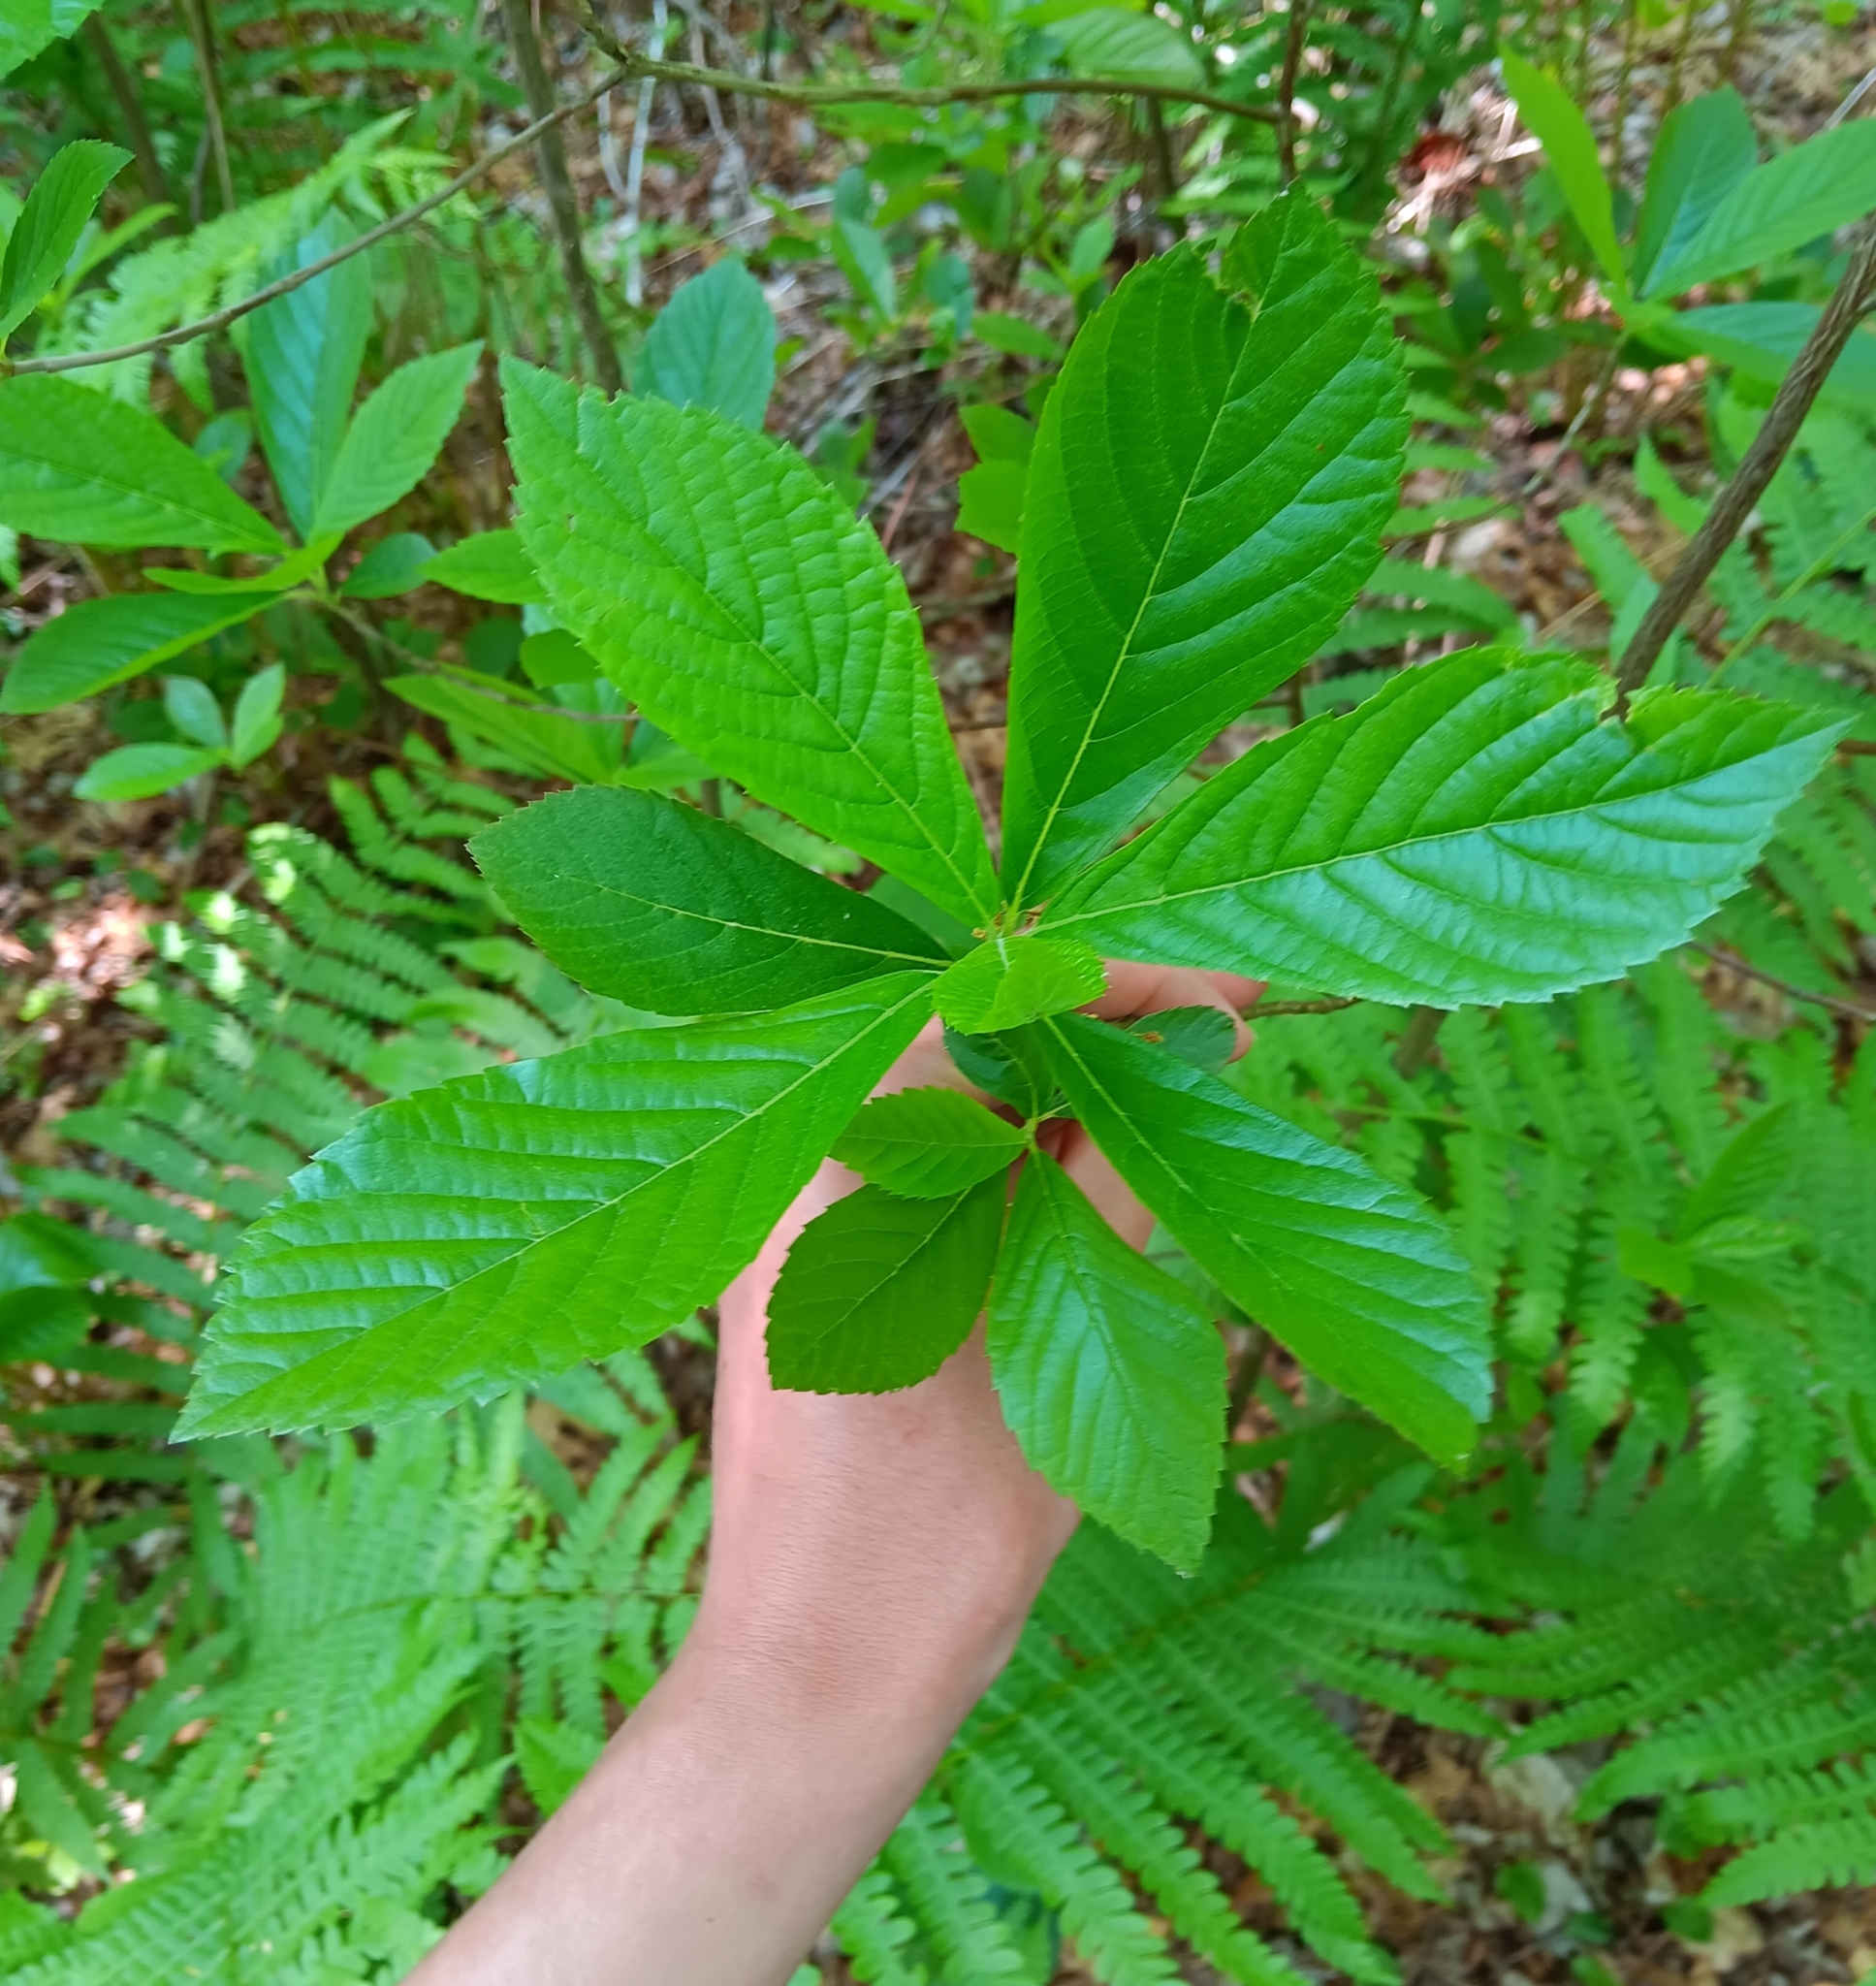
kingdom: Plantae
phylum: Tracheophyta
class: Magnoliopsida
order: Ericales
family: Clethraceae
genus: Clethra
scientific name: Clethra alnifolia
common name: Sweet pepperbush
